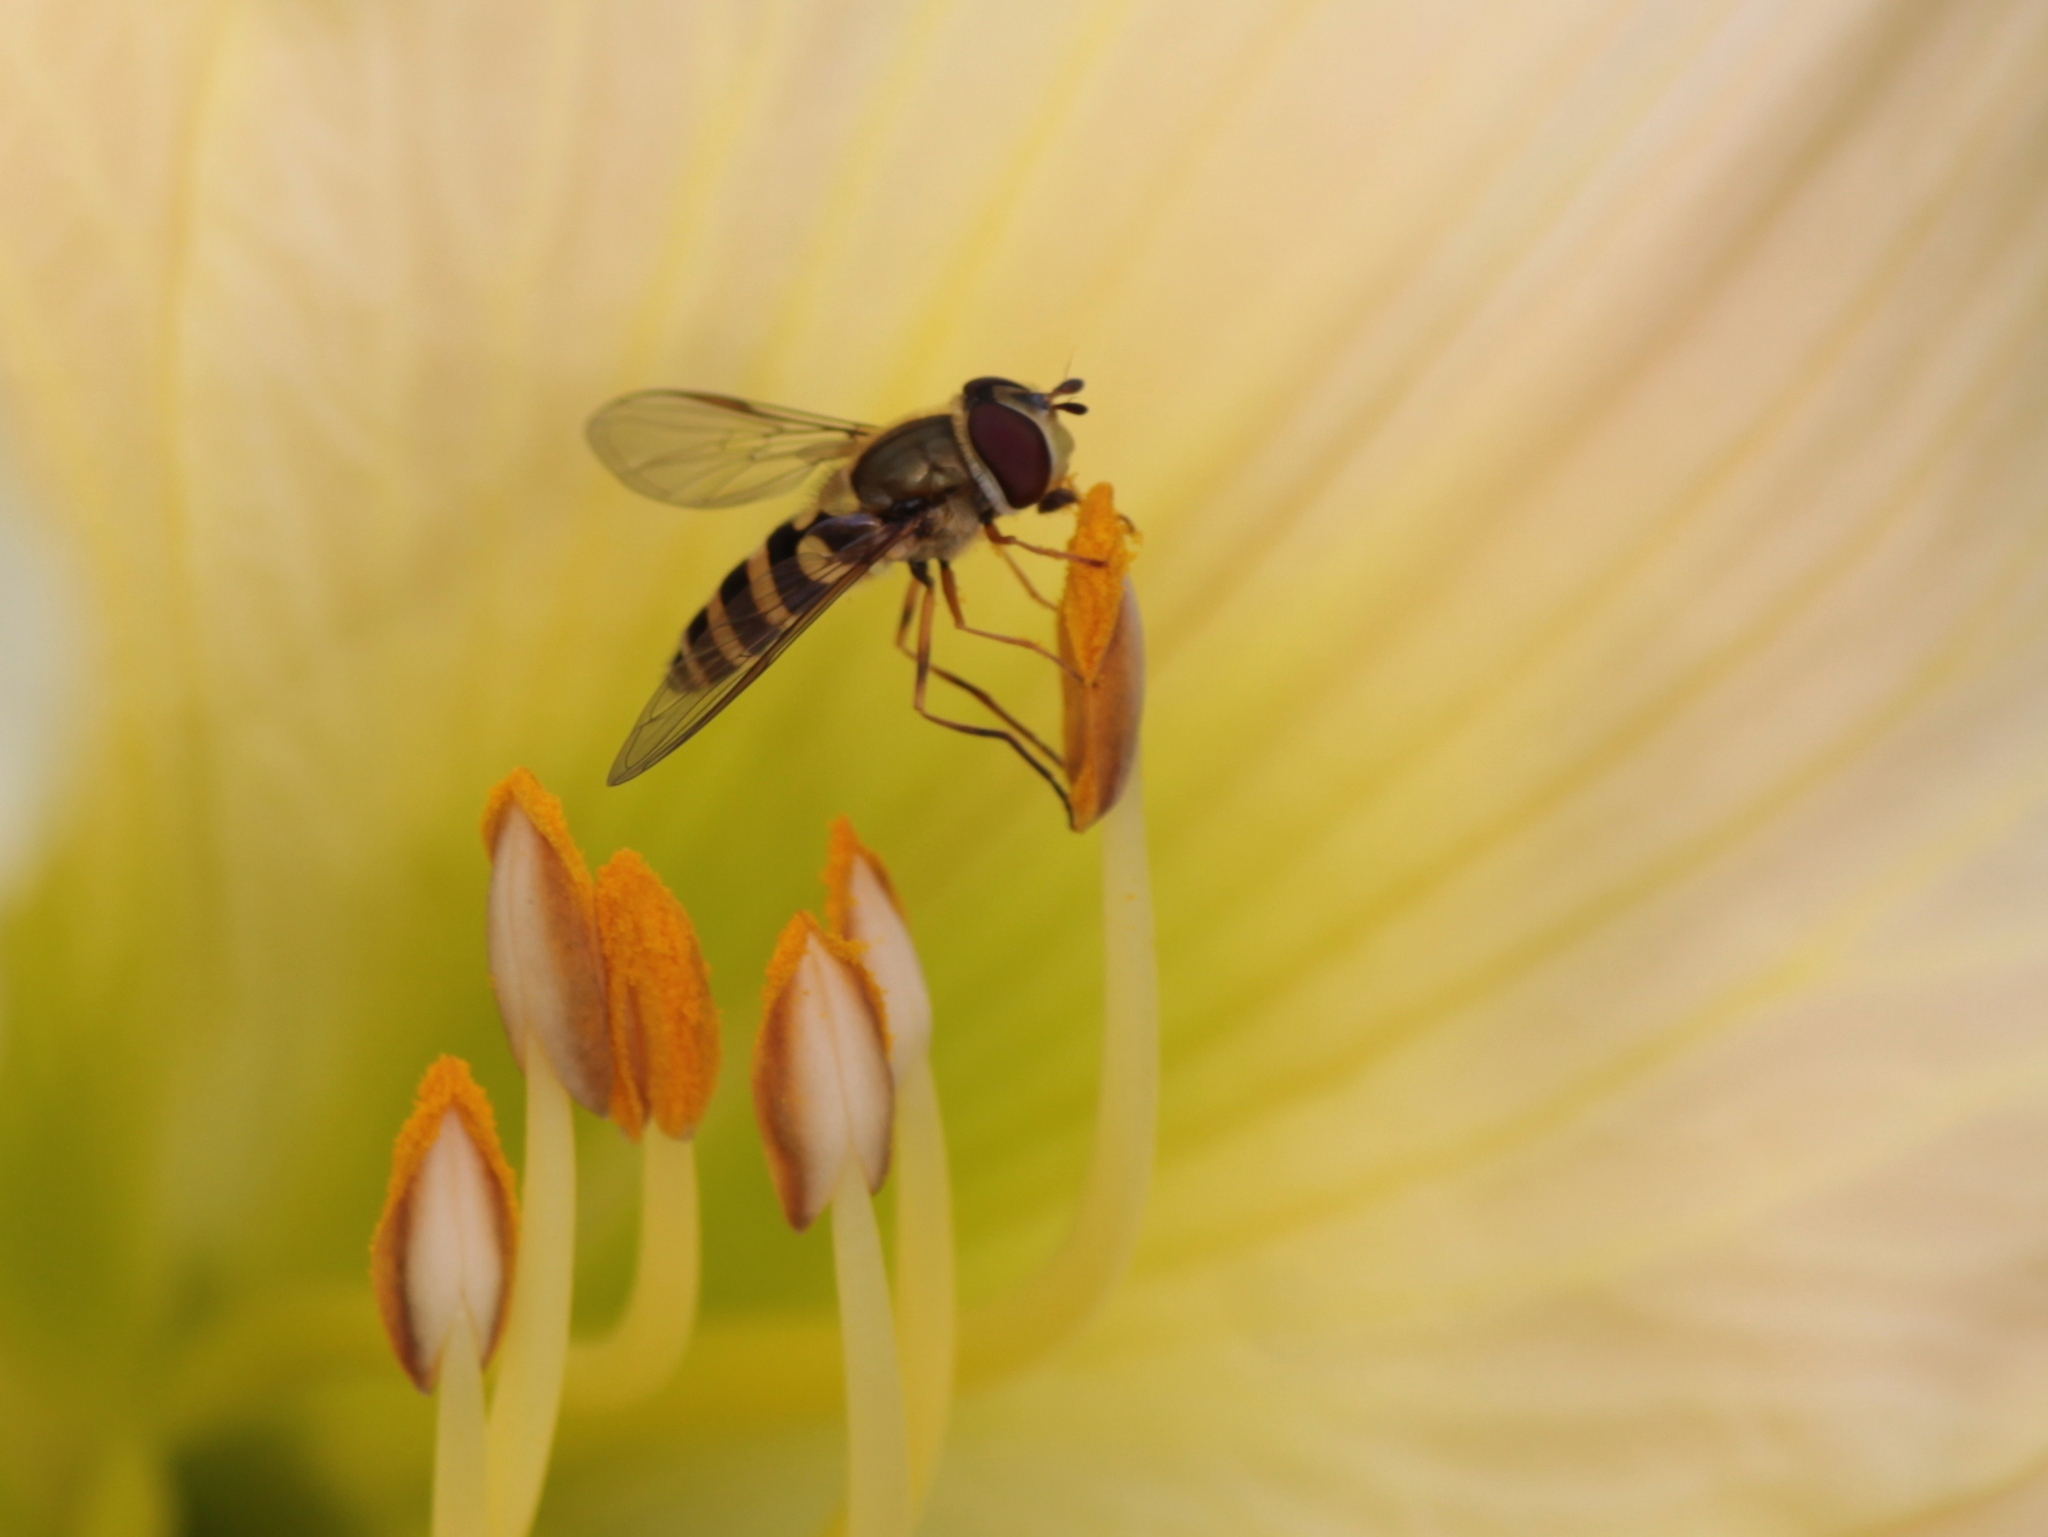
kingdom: Animalia
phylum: Arthropoda
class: Insecta
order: Diptera
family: Syrphidae
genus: Syrphus
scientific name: Syrphus rectus
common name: Yellow-legged flower fly
